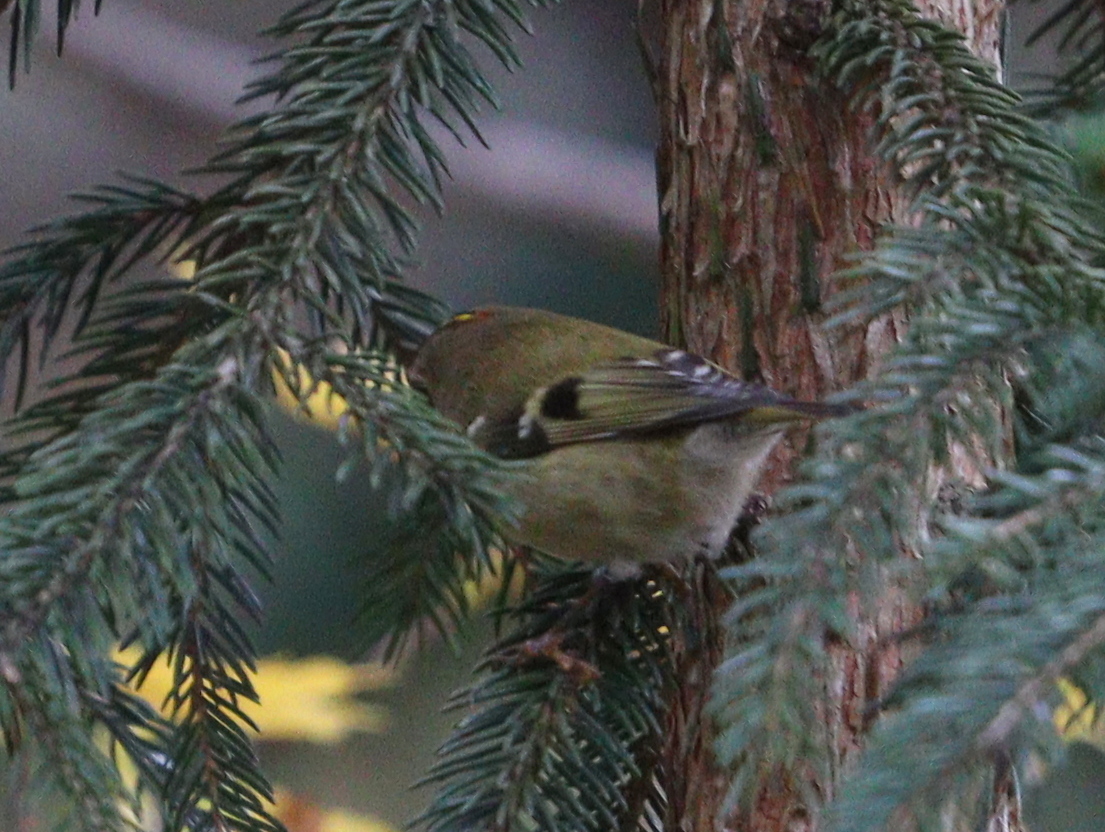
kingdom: Animalia
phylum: Chordata
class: Aves
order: Passeriformes
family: Regulidae
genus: Regulus
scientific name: Regulus regulus
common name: Goldcrest
